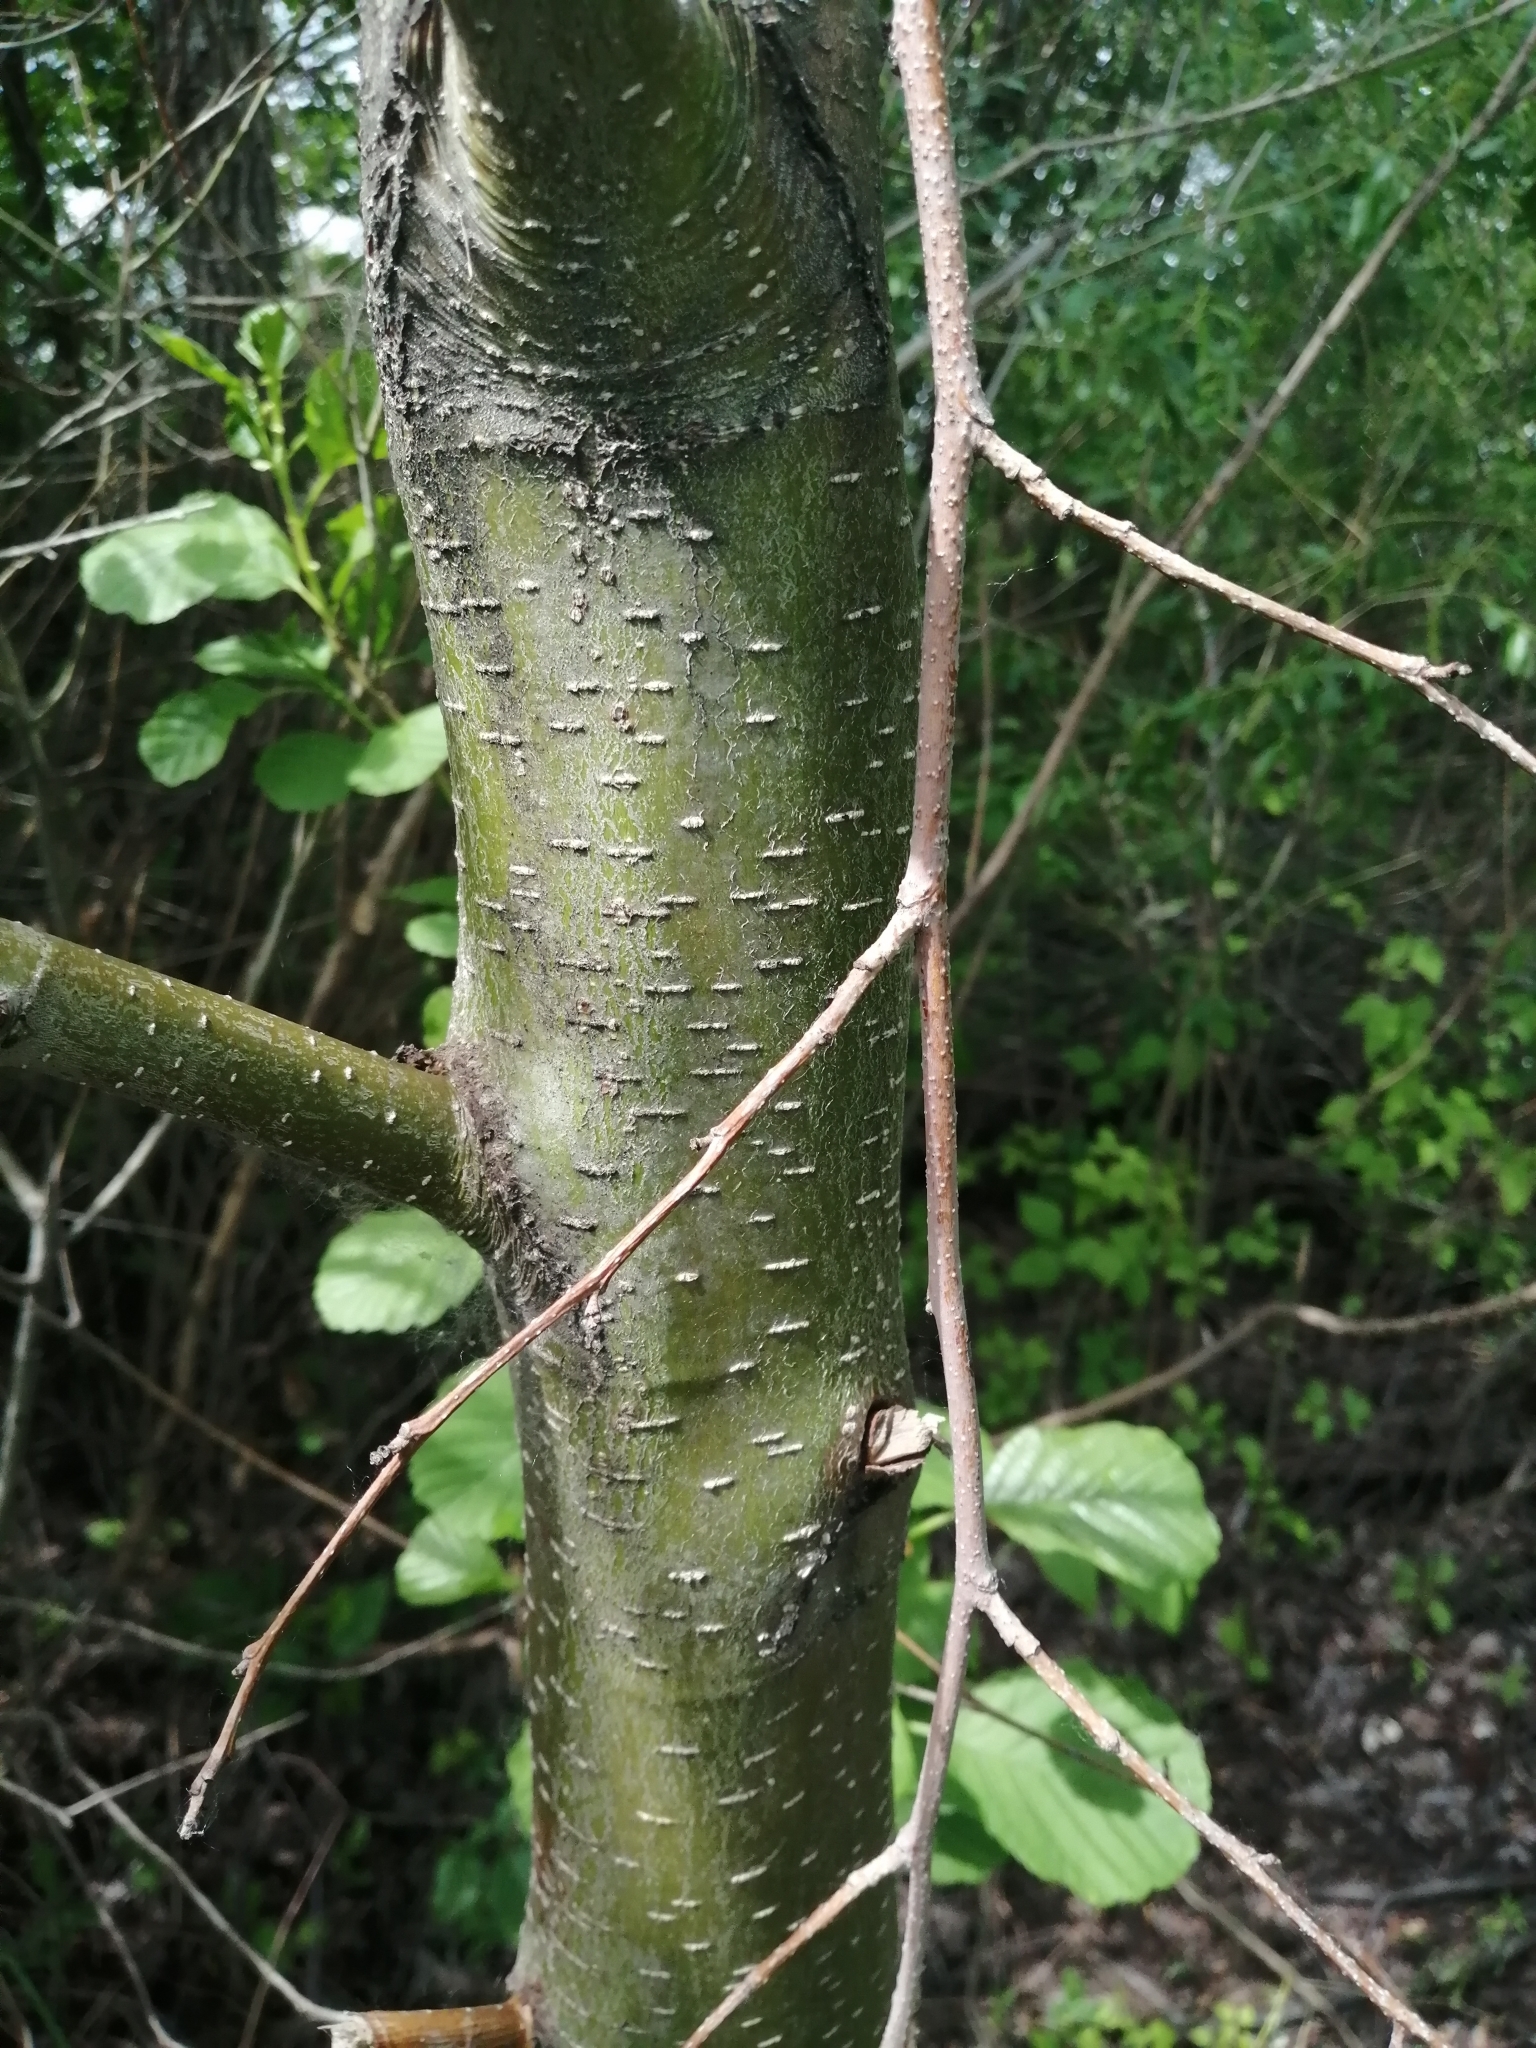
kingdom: Plantae
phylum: Tracheophyta
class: Magnoliopsida
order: Fagales
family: Betulaceae
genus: Alnus
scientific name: Alnus glutinosa
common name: Black alder
